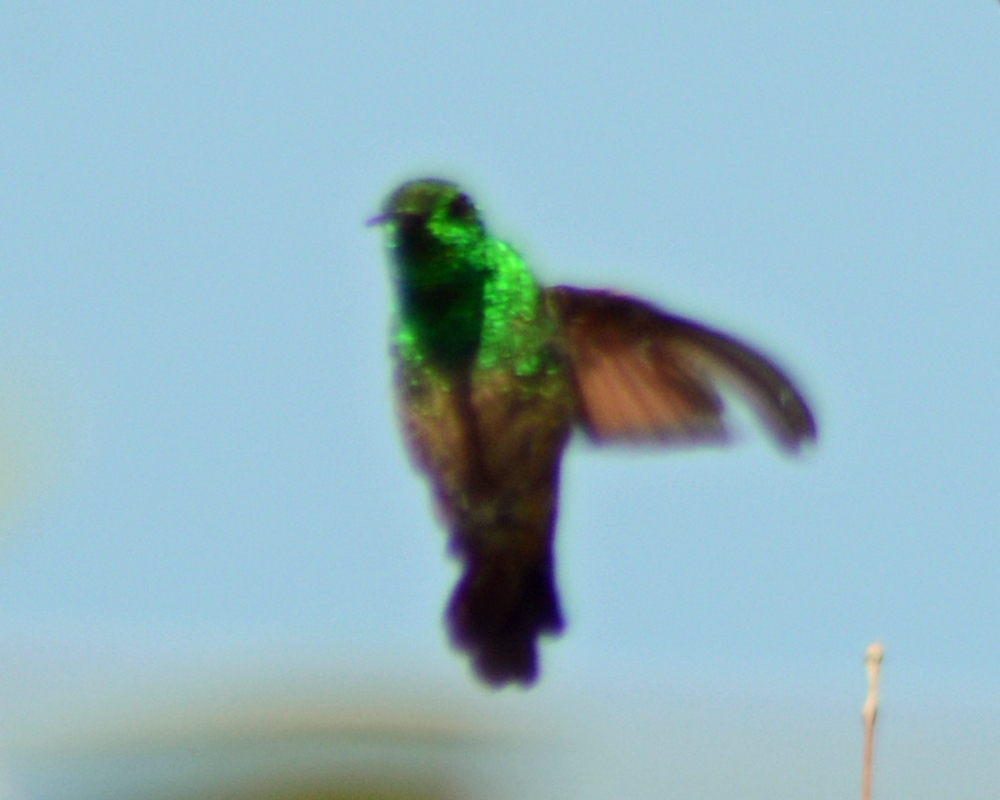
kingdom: Animalia
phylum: Chordata
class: Aves
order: Apodiformes
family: Trochilidae
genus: Saucerottia
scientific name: Saucerottia beryllina
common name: Berylline hummingbird
